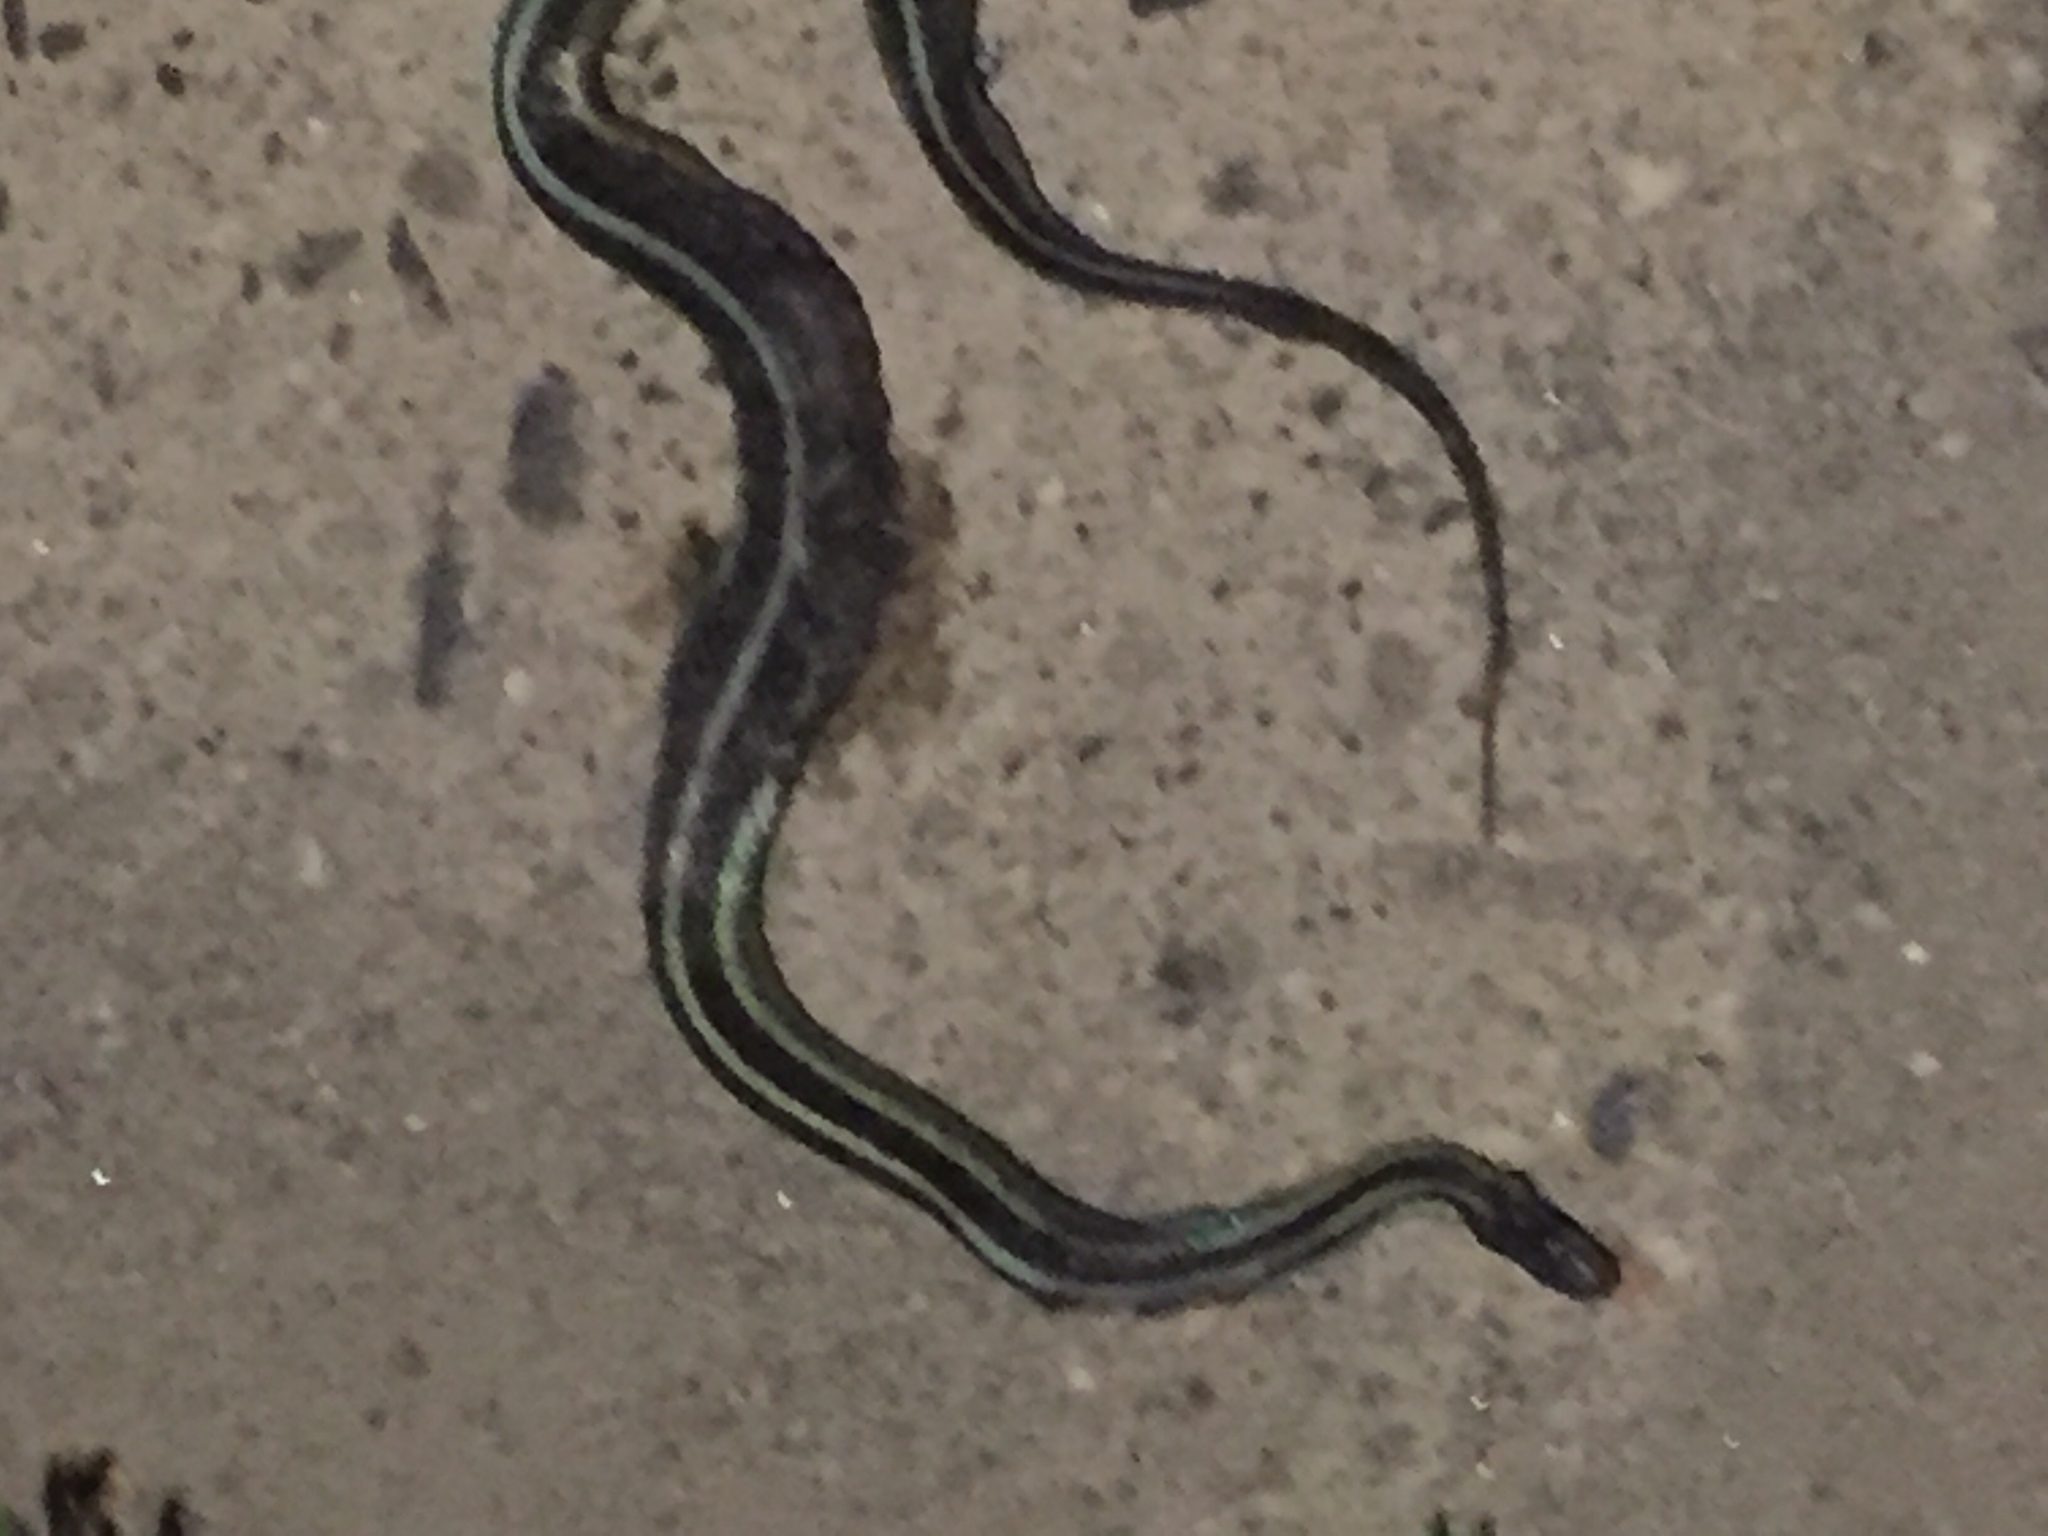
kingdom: Animalia
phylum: Chordata
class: Squamata
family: Colubridae
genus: Thamnophis
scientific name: Thamnophis sirtalis
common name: Common garter snake
